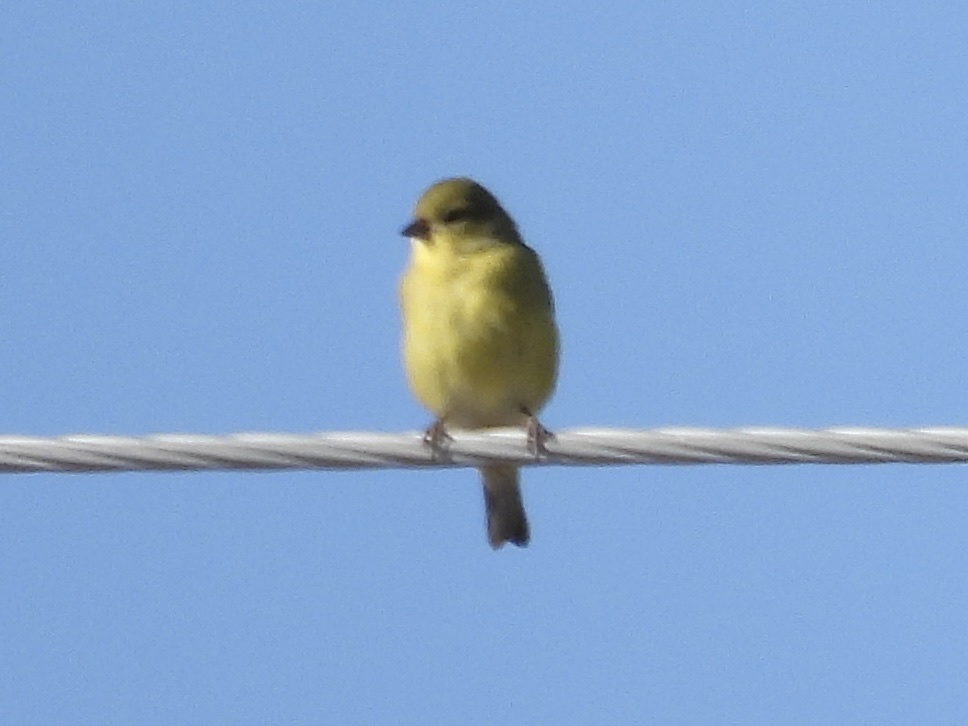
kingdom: Animalia
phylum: Chordata
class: Aves
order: Passeriformes
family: Fringillidae
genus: Spinus
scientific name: Spinus psaltria
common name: Lesser goldfinch
